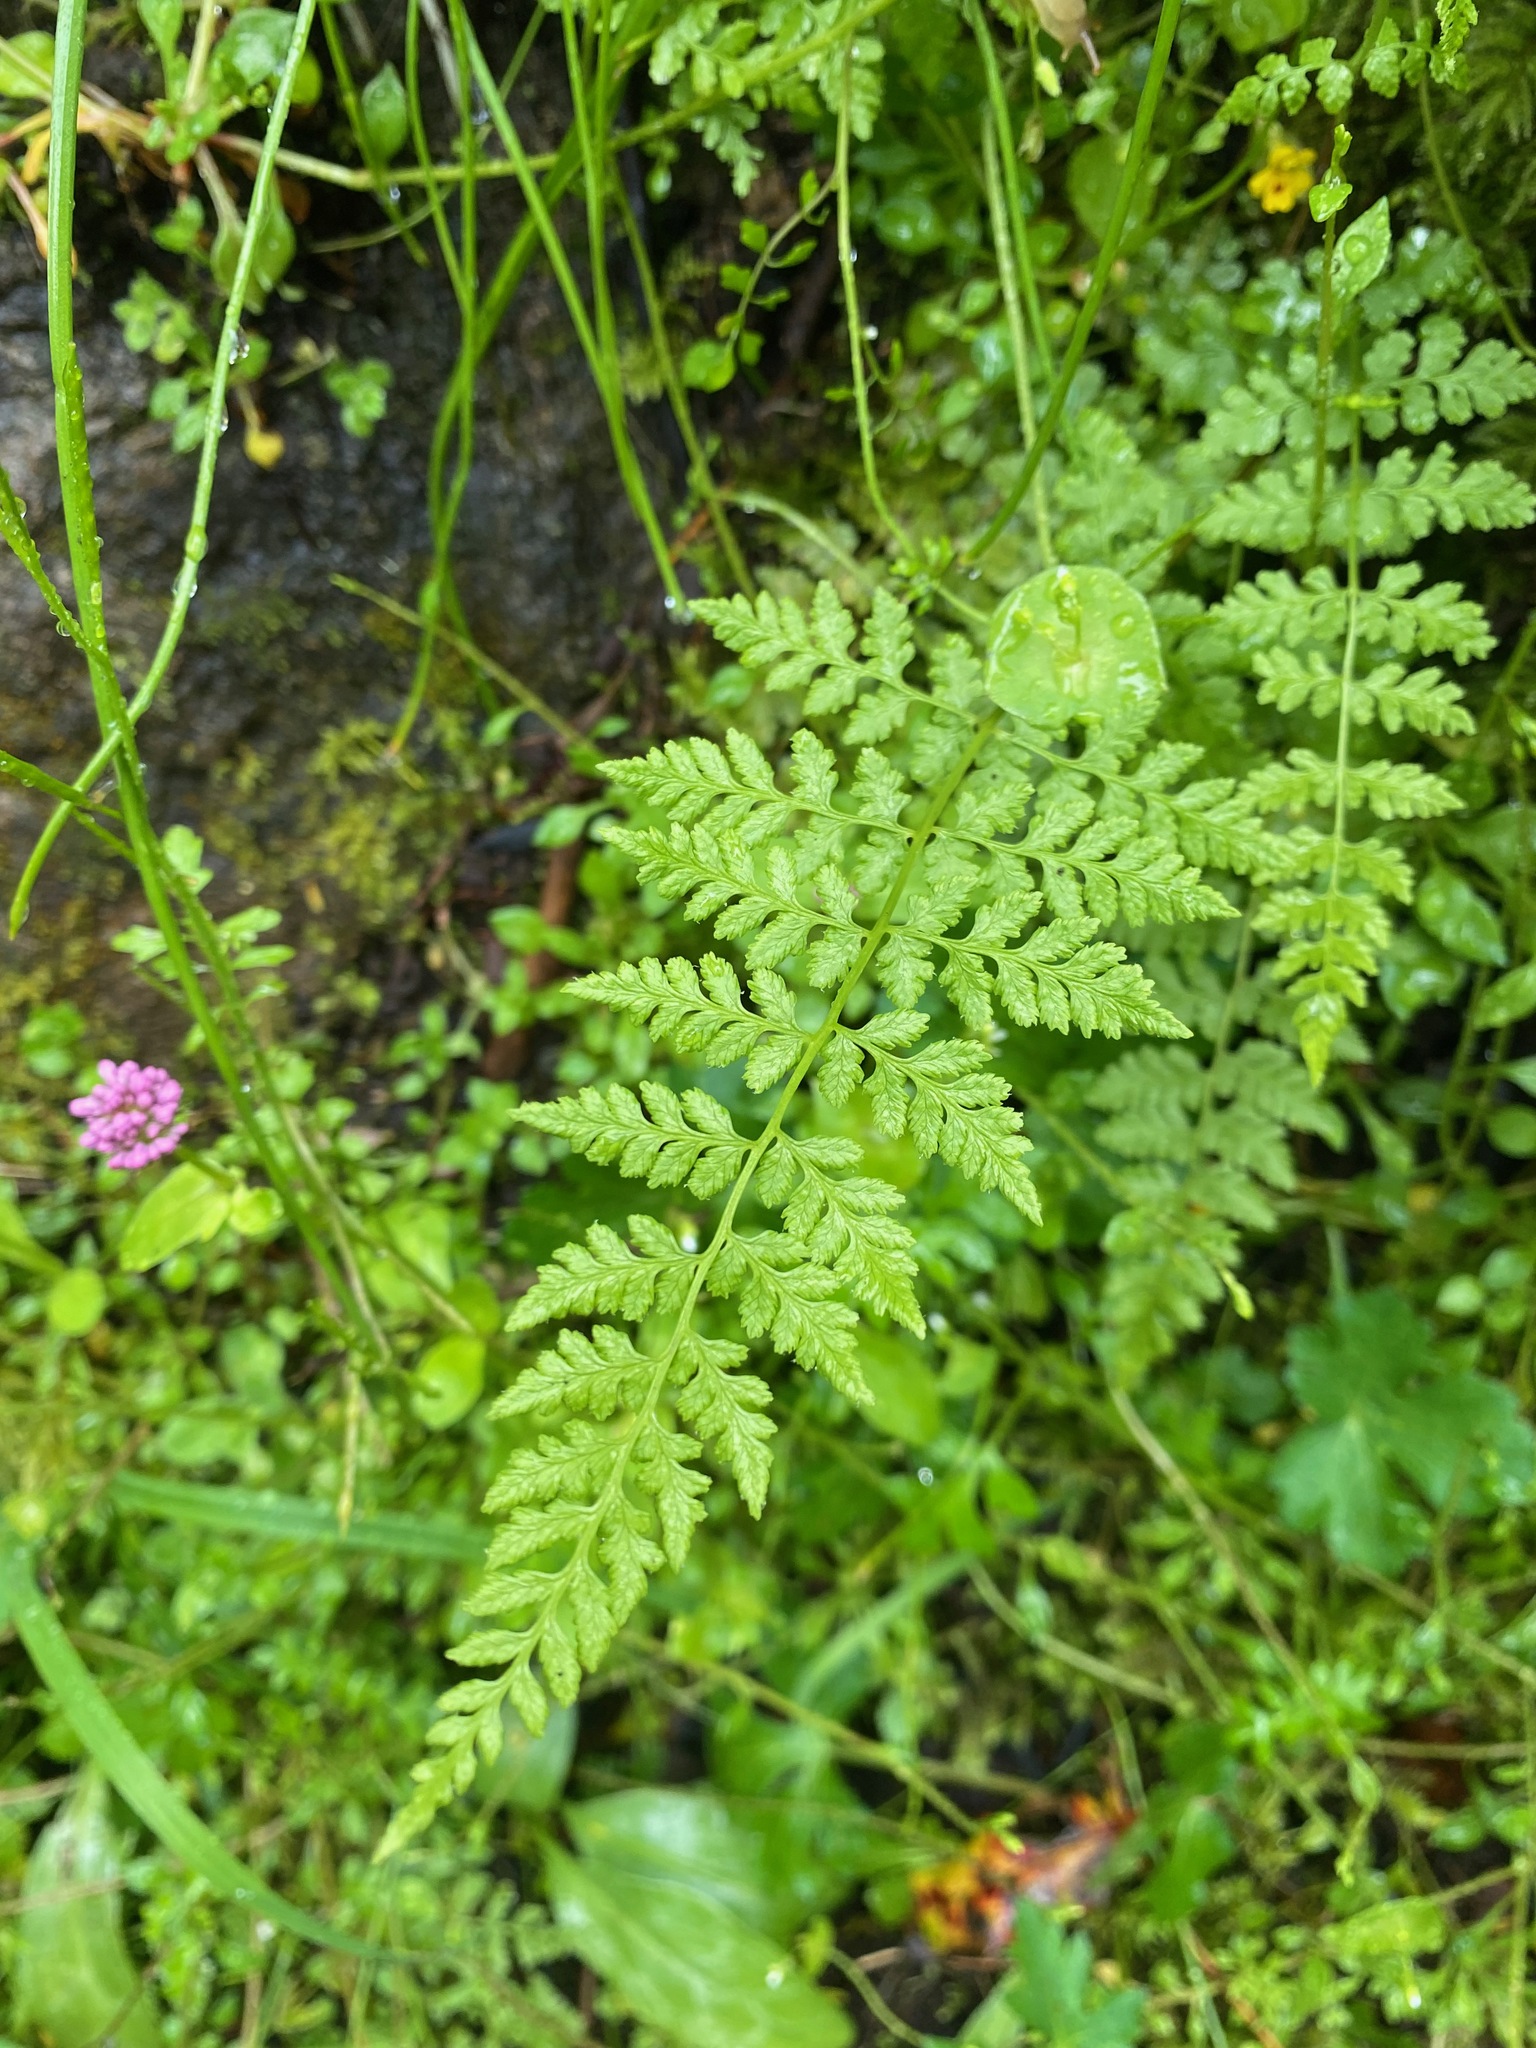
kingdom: Plantae
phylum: Tracheophyta
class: Polypodiopsida
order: Polypodiales
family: Cystopteridaceae
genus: Cystopteris
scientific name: Cystopteris fragilis
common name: Brittle bladder fern
